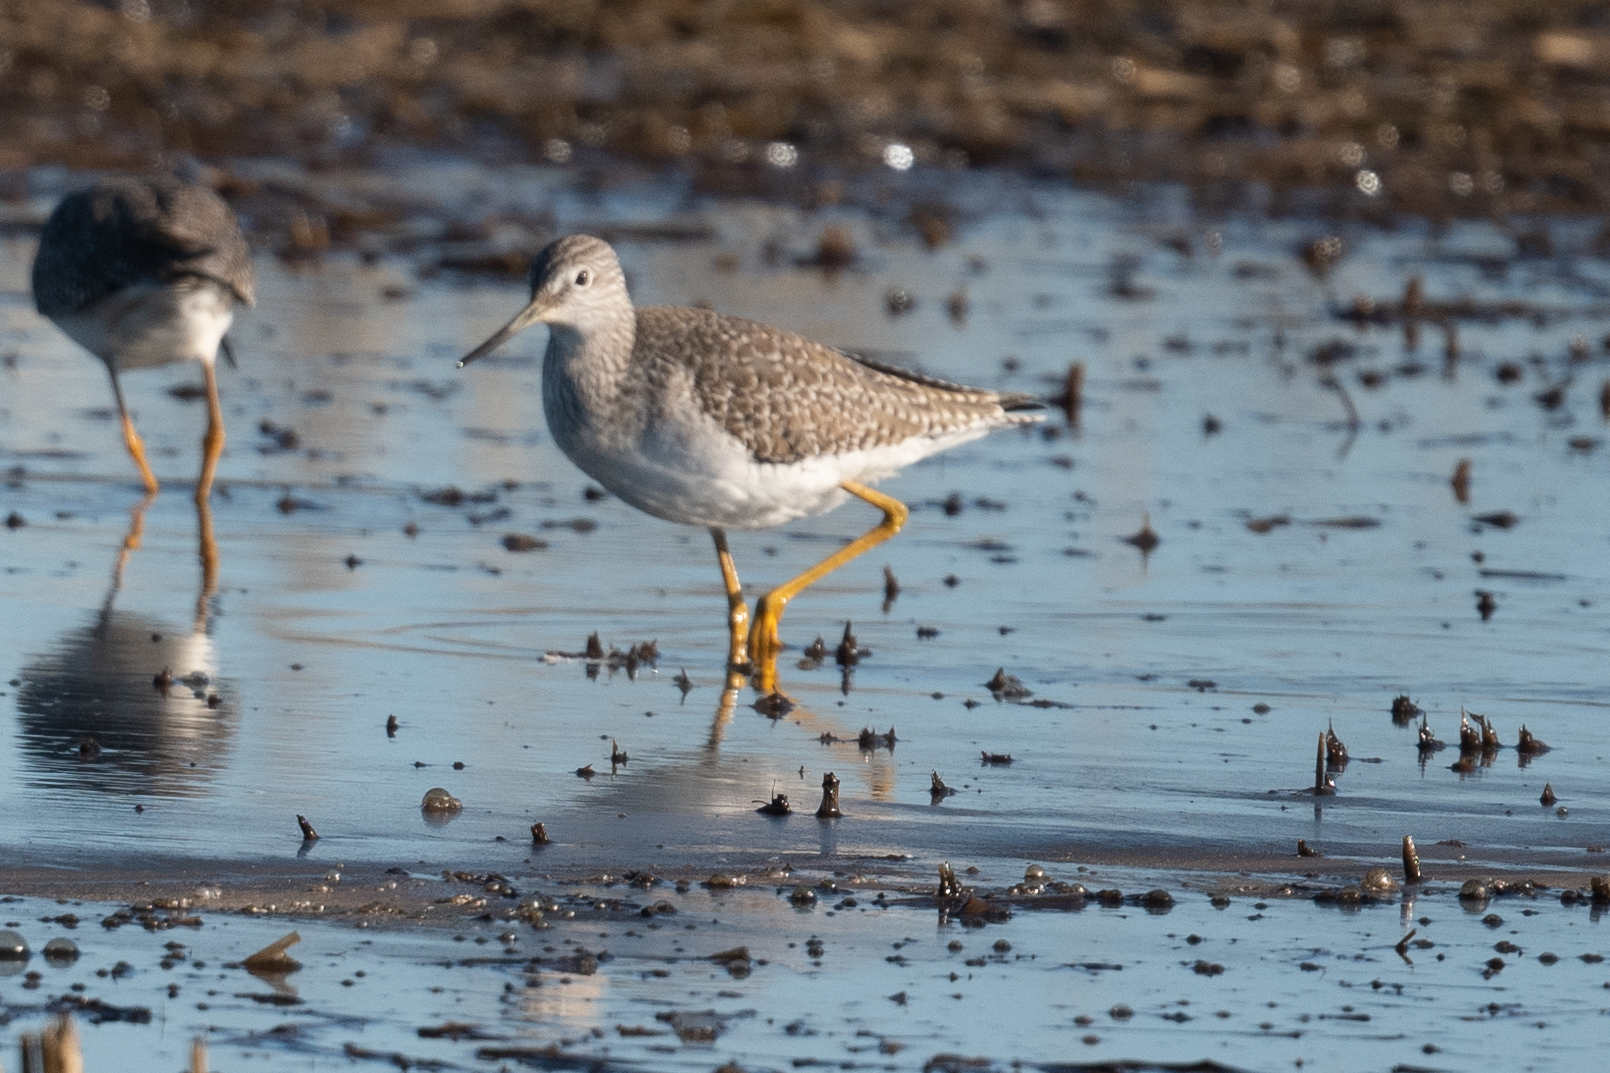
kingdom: Animalia
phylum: Chordata
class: Aves
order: Charadriiformes
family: Scolopacidae
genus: Tringa
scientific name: Tringa melanoleuca
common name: Greater yellowlegs
